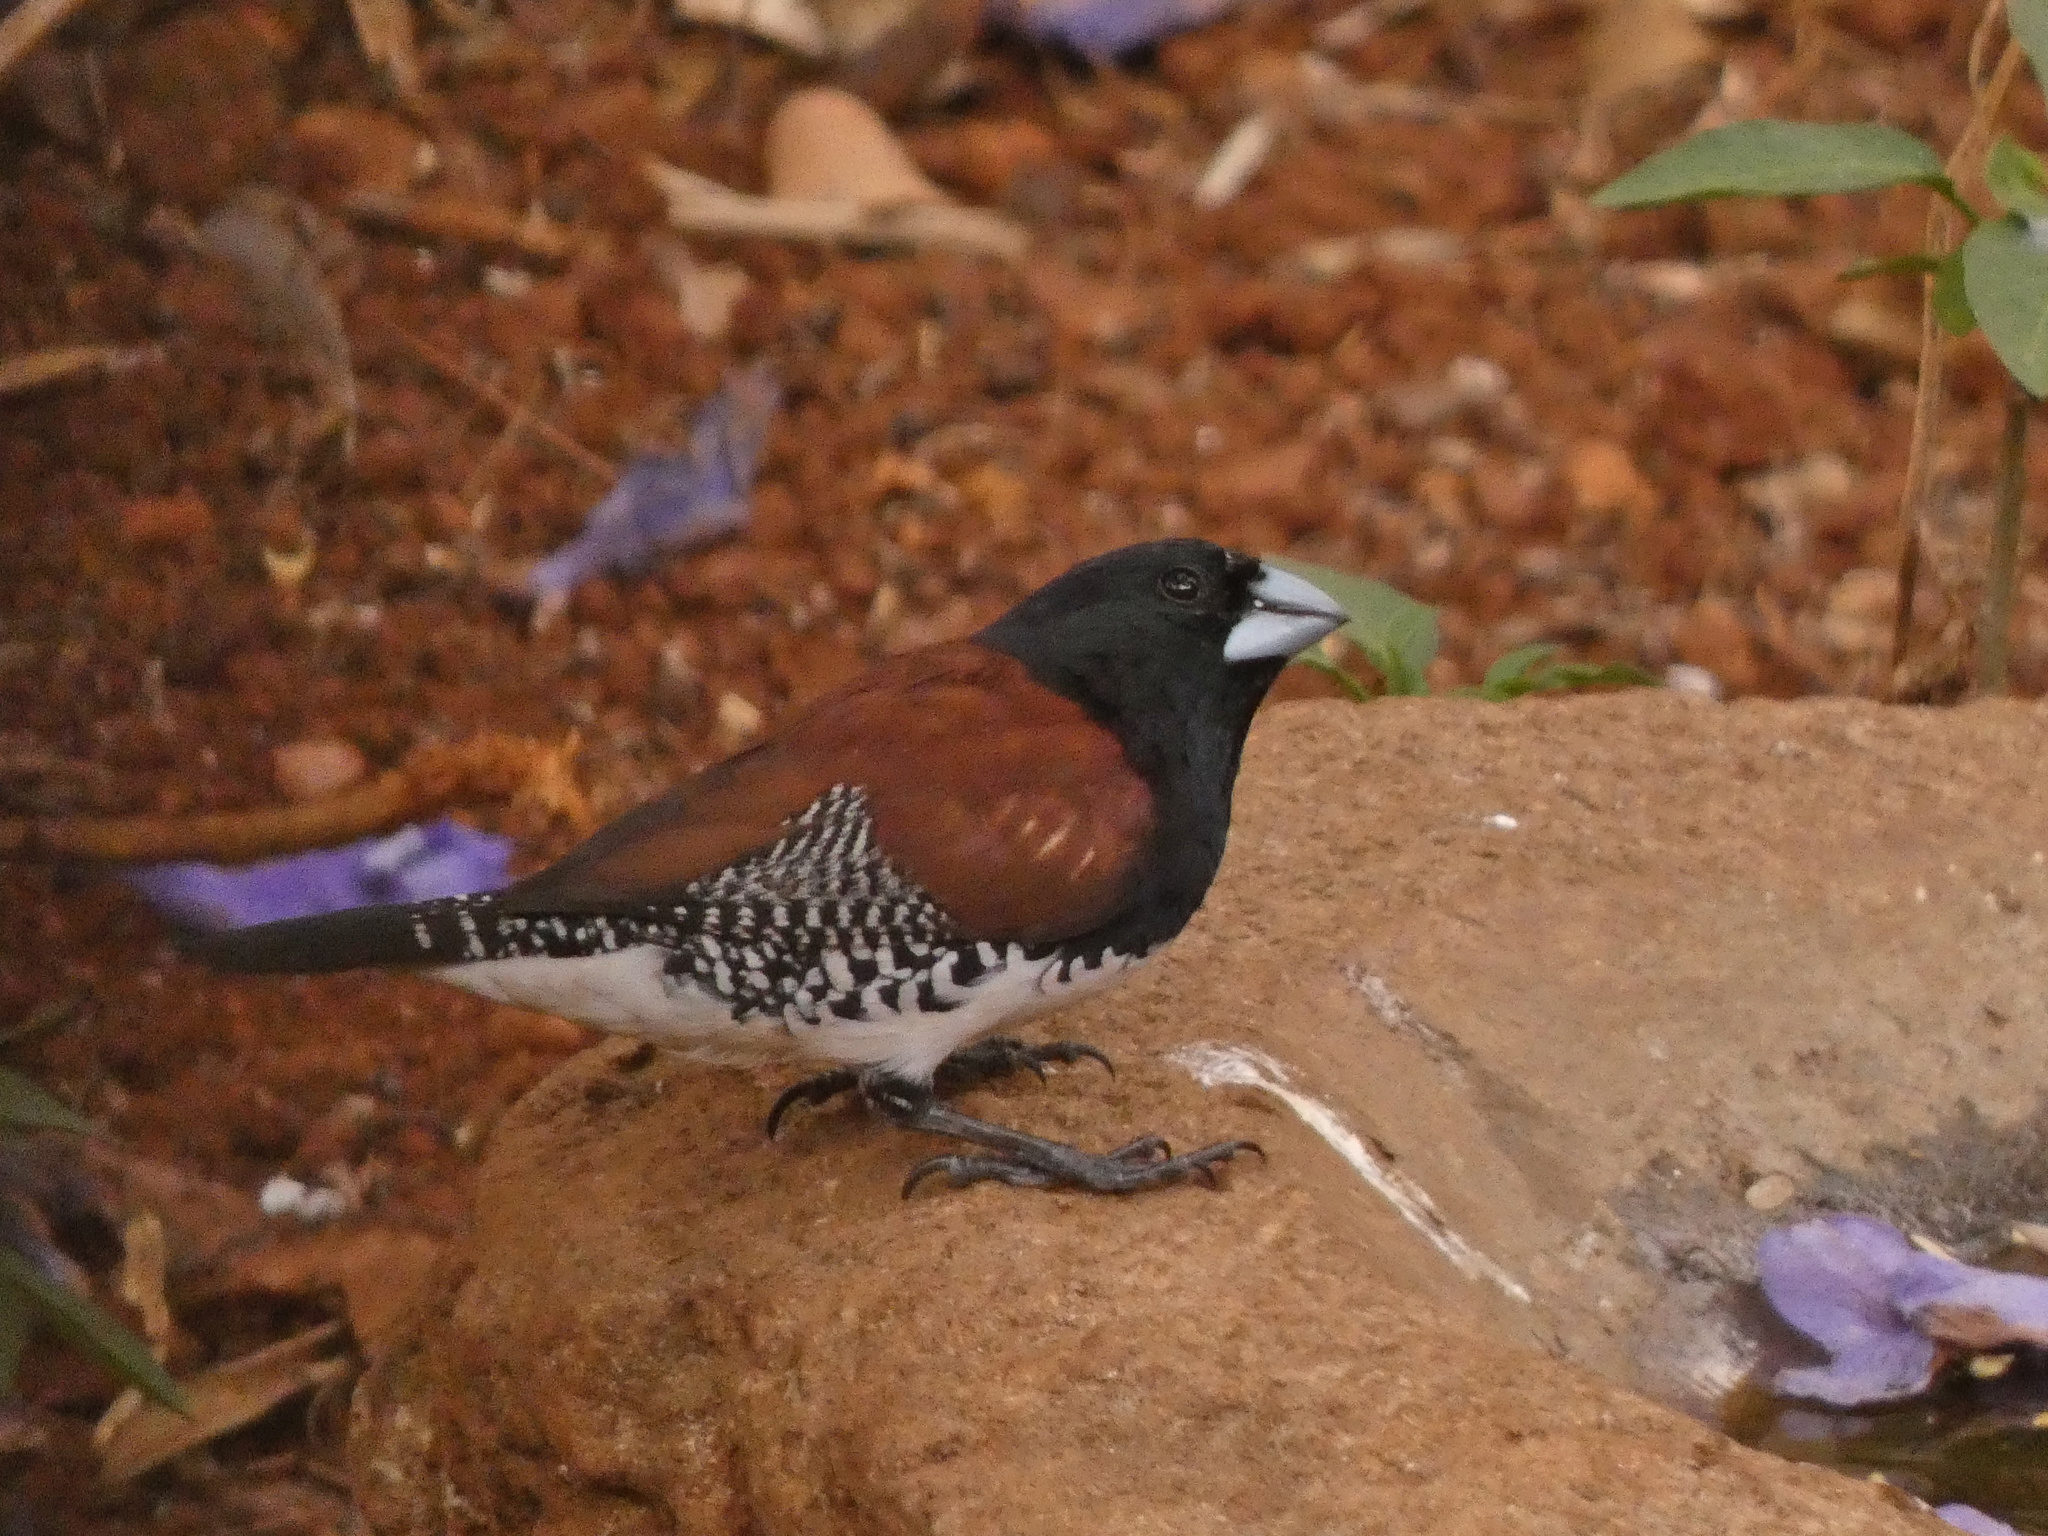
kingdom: Animalia
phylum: Chordata
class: Aves
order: Passeriformes
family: Estrildidae
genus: Lonchura
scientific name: Lonchura nigriceps
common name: Red-backed mannikin
